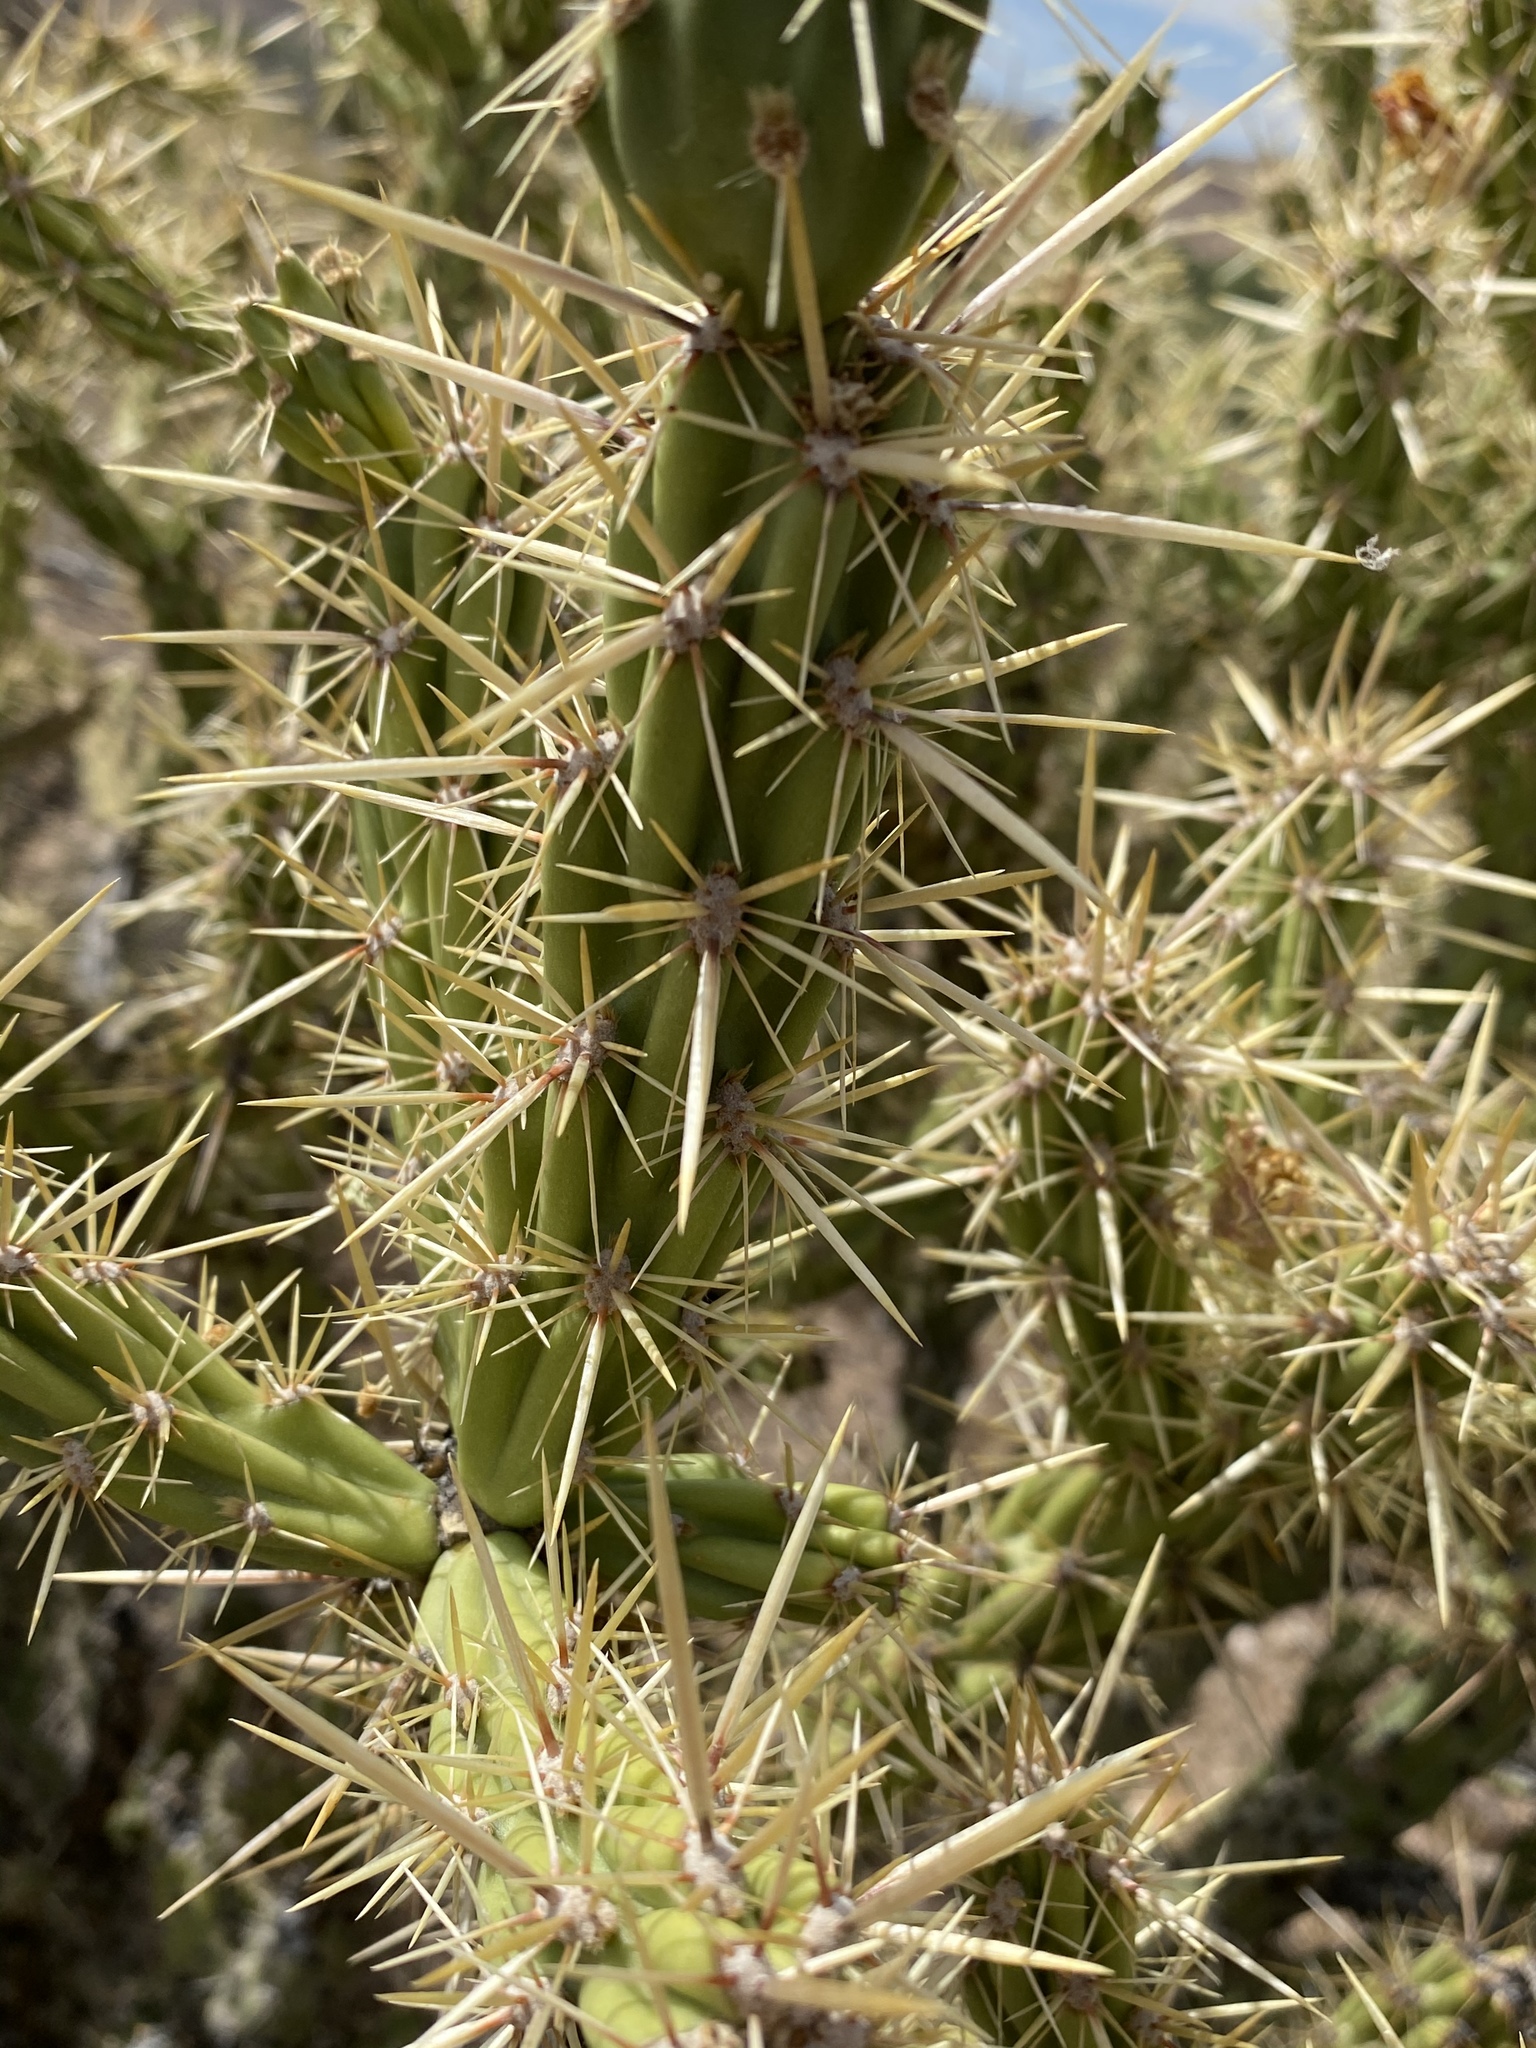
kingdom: Plantae
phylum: Tracheophyta
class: Magnoliopsida
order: Caryophyllales
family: Cactaceae
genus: Cylindropuntia
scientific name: Cylindropuntia acanthocarpa
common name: Buckhorn cholla
